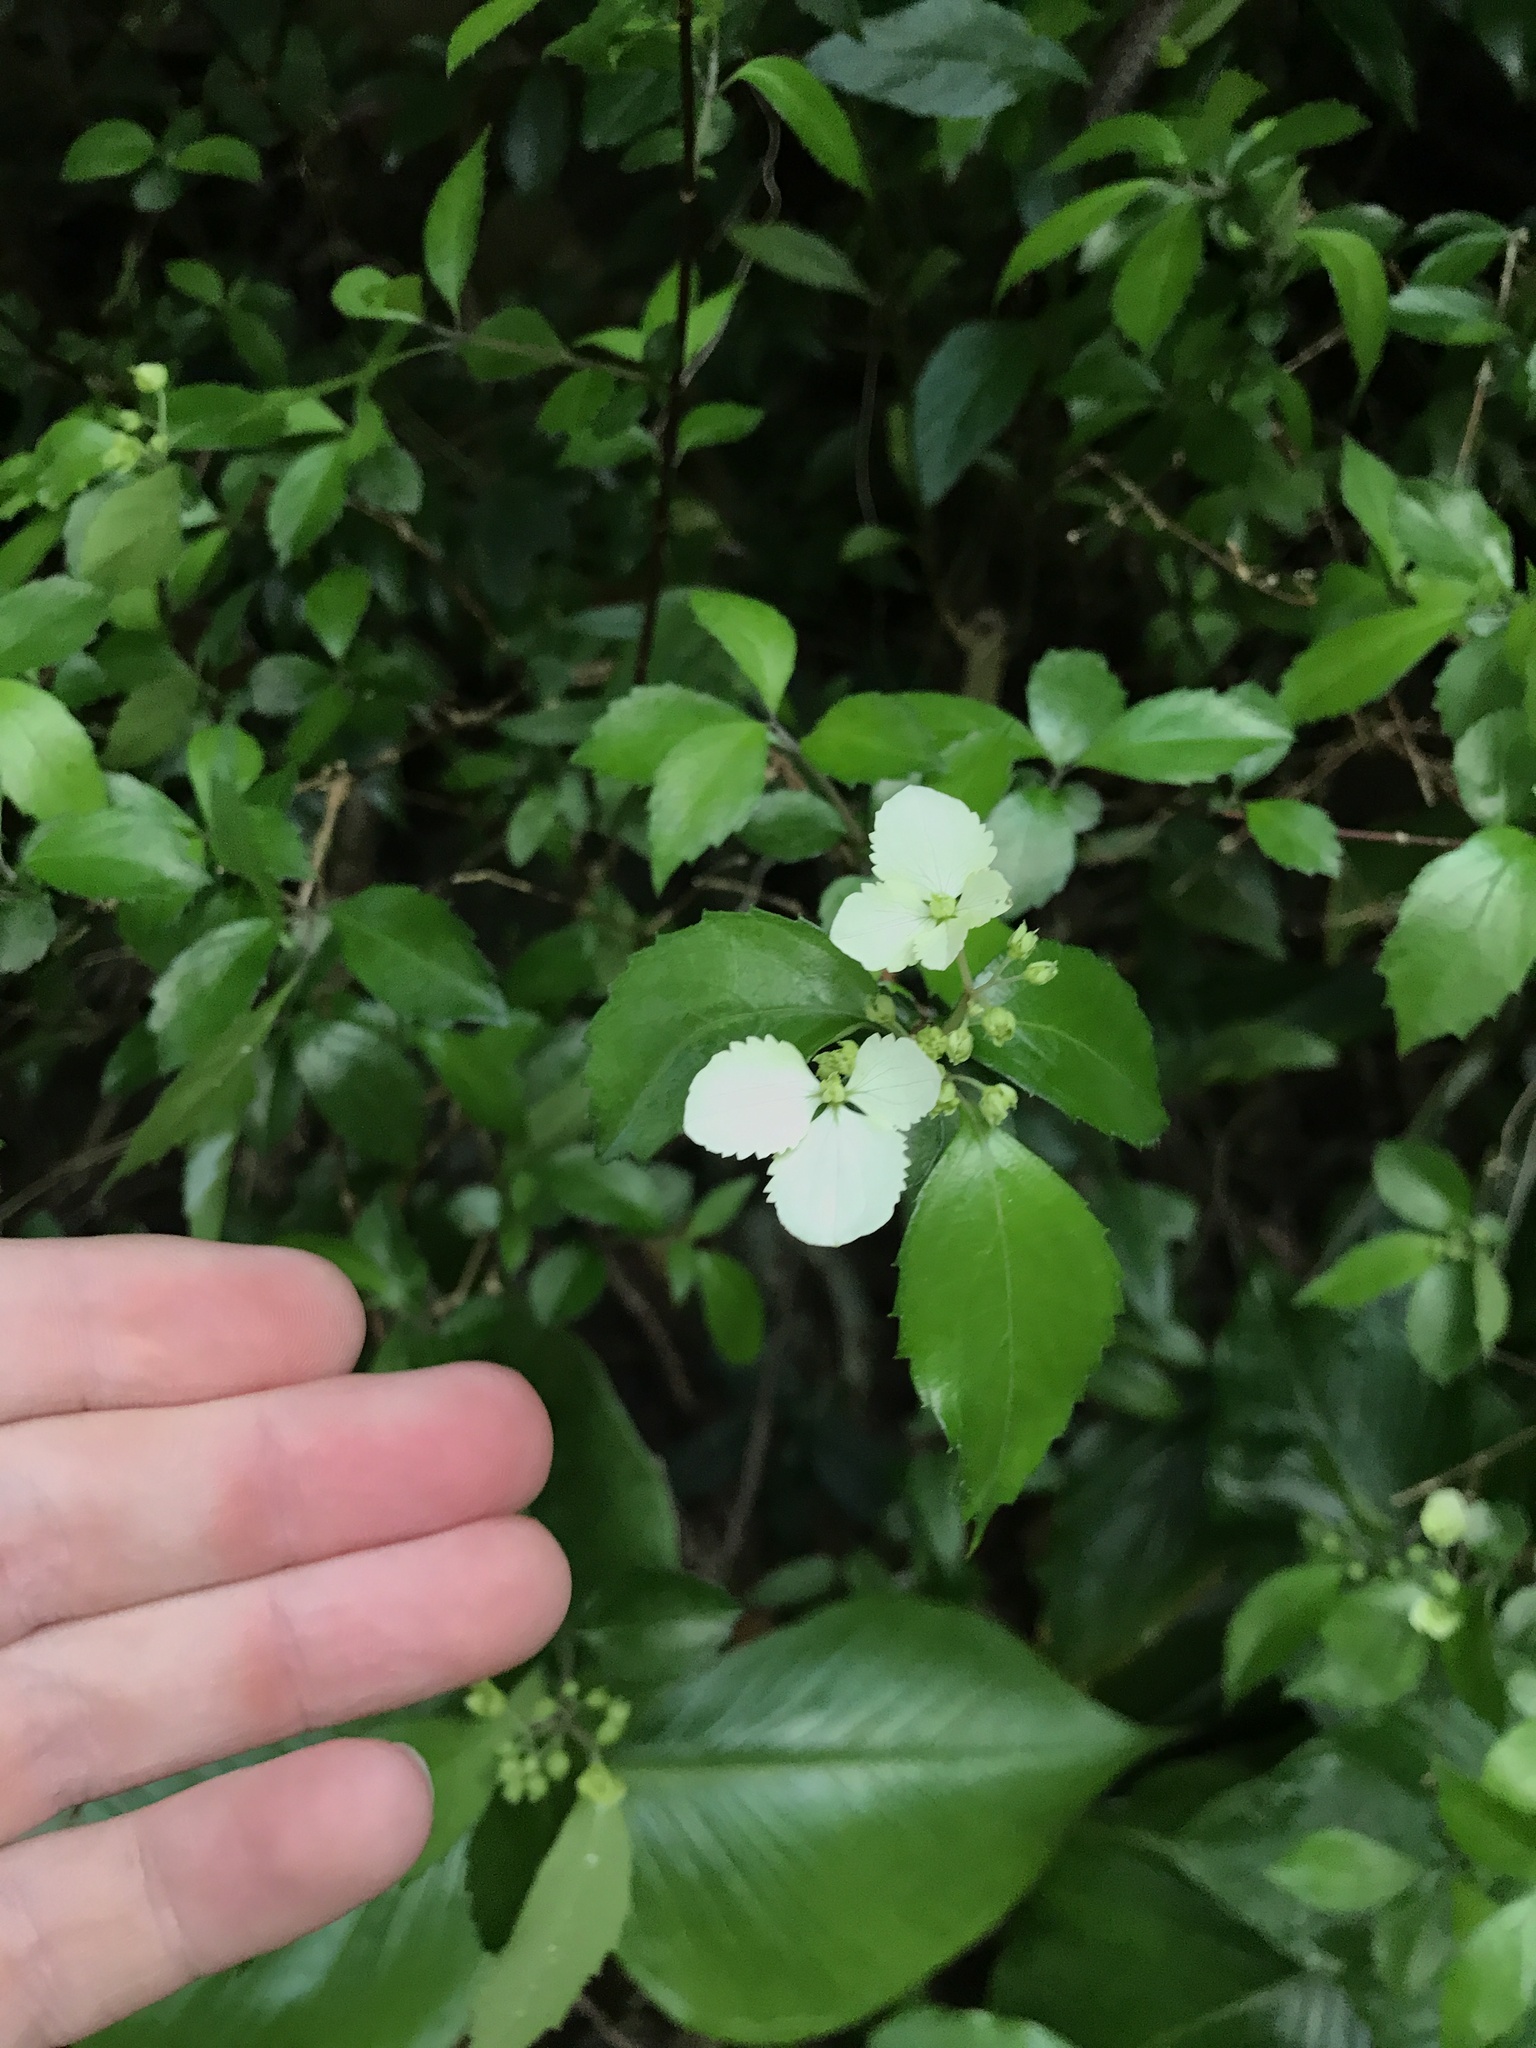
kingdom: Plantae
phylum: Tracheophyta
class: Magnoliopsida
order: Cornales
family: Hydrangeaceae
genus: Hydrangea
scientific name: Hydrangea luteovenosa
